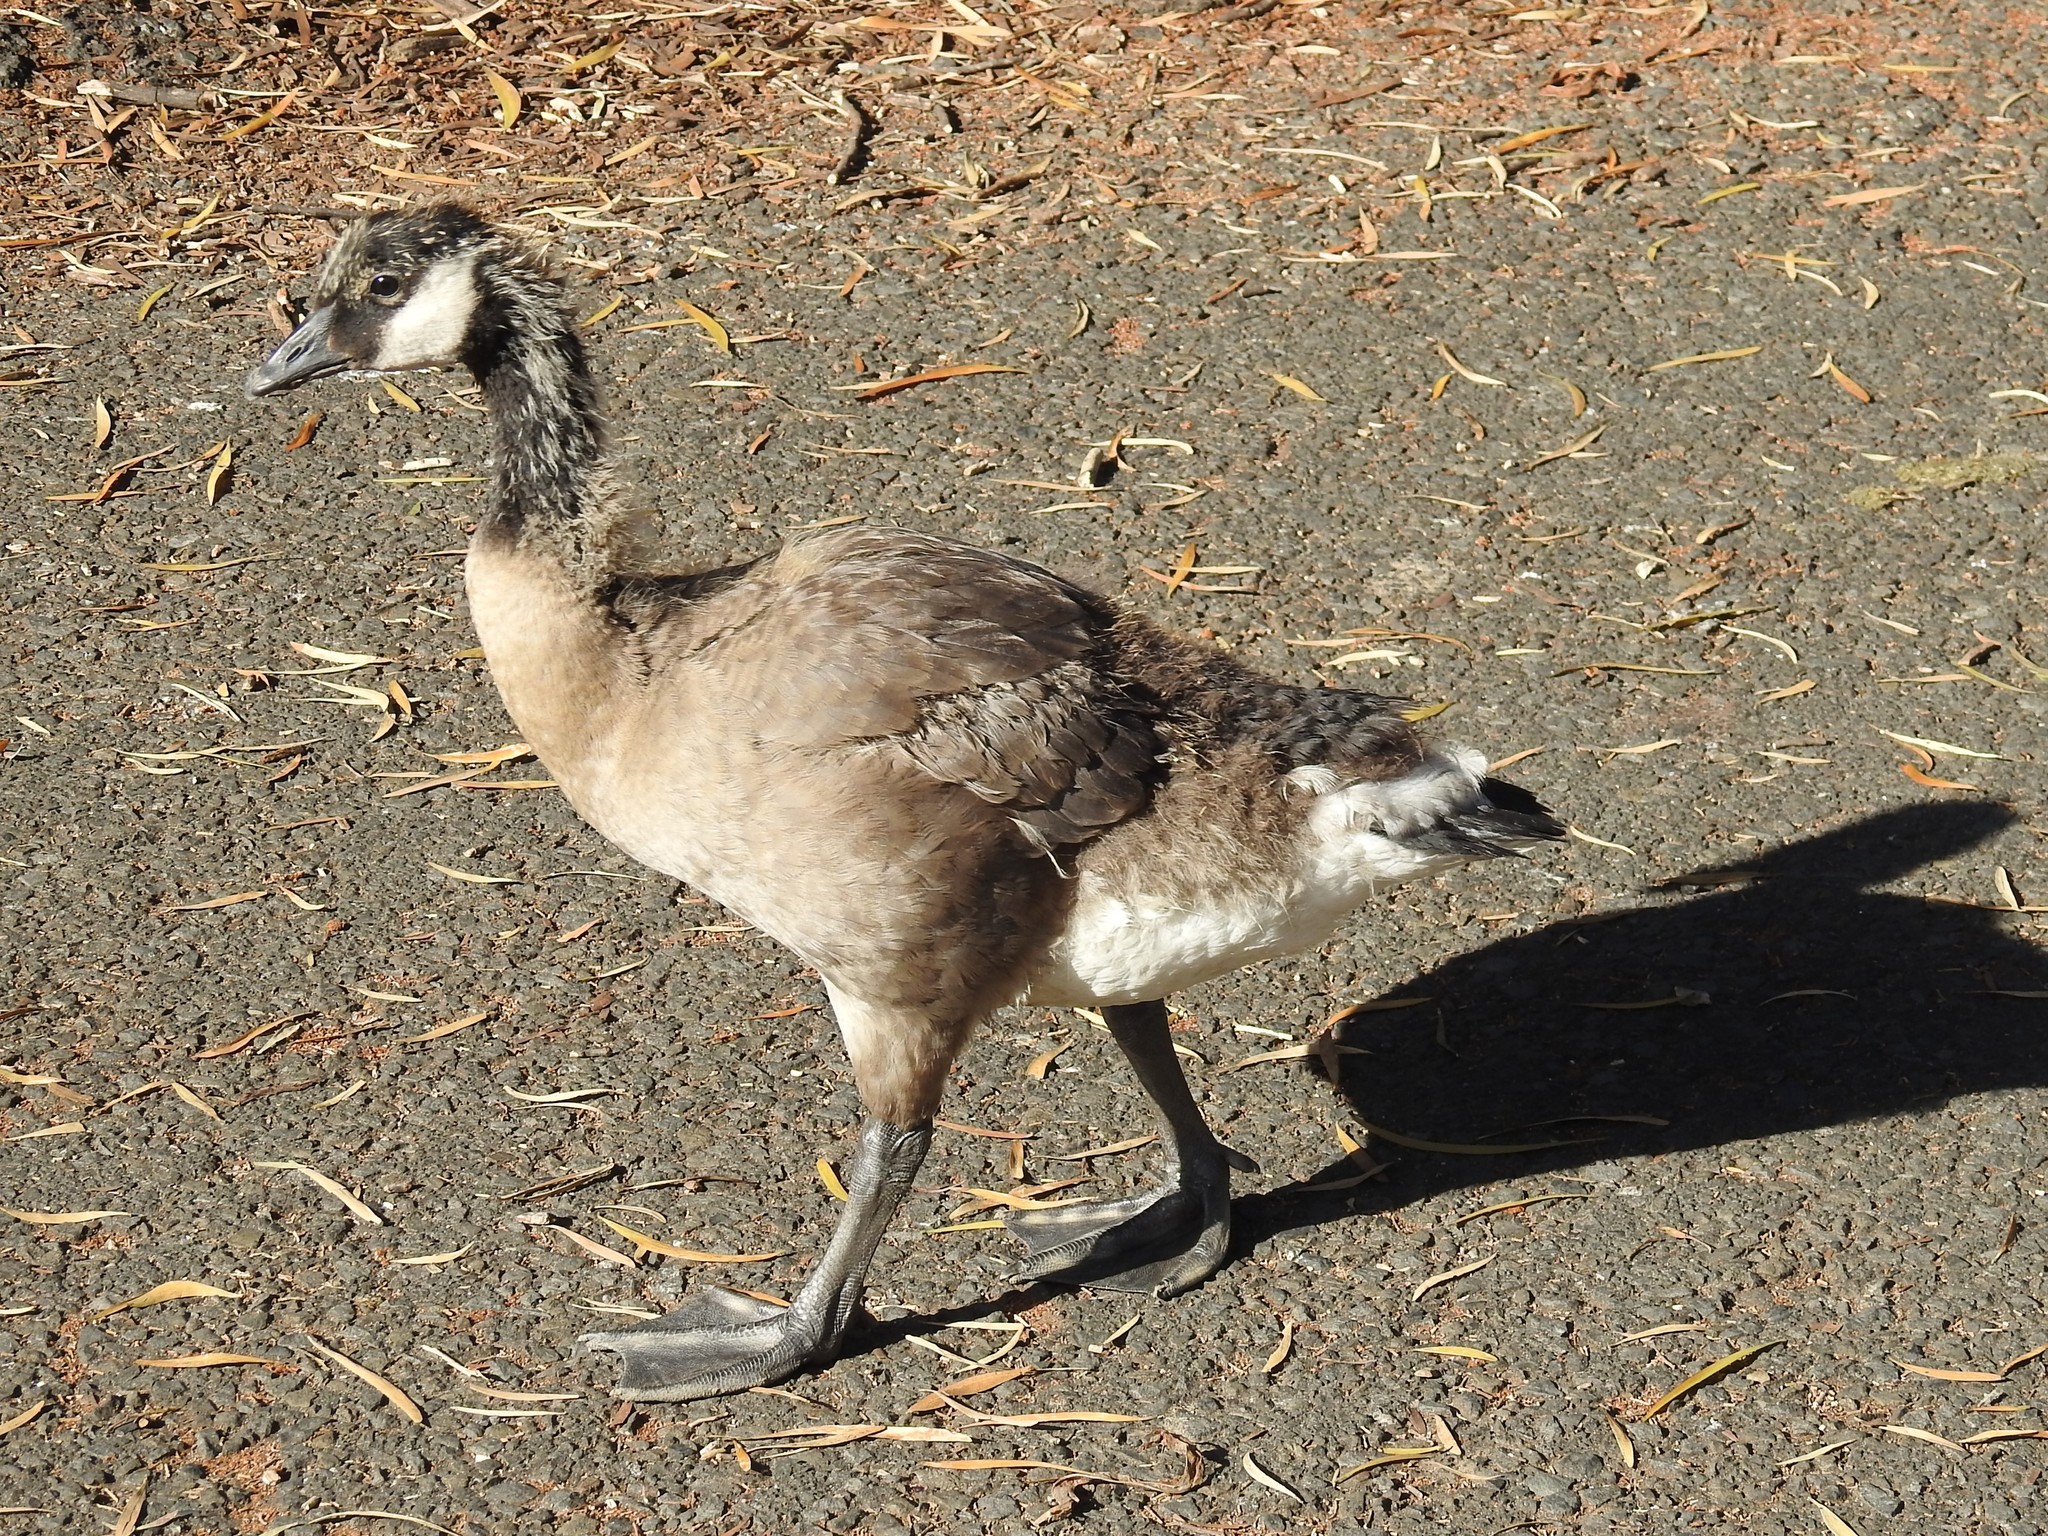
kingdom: Animalia
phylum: Chordata
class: Aves
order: Anseriformes
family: Anatidae
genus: Branta
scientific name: Branta canadensis
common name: Canada goose
